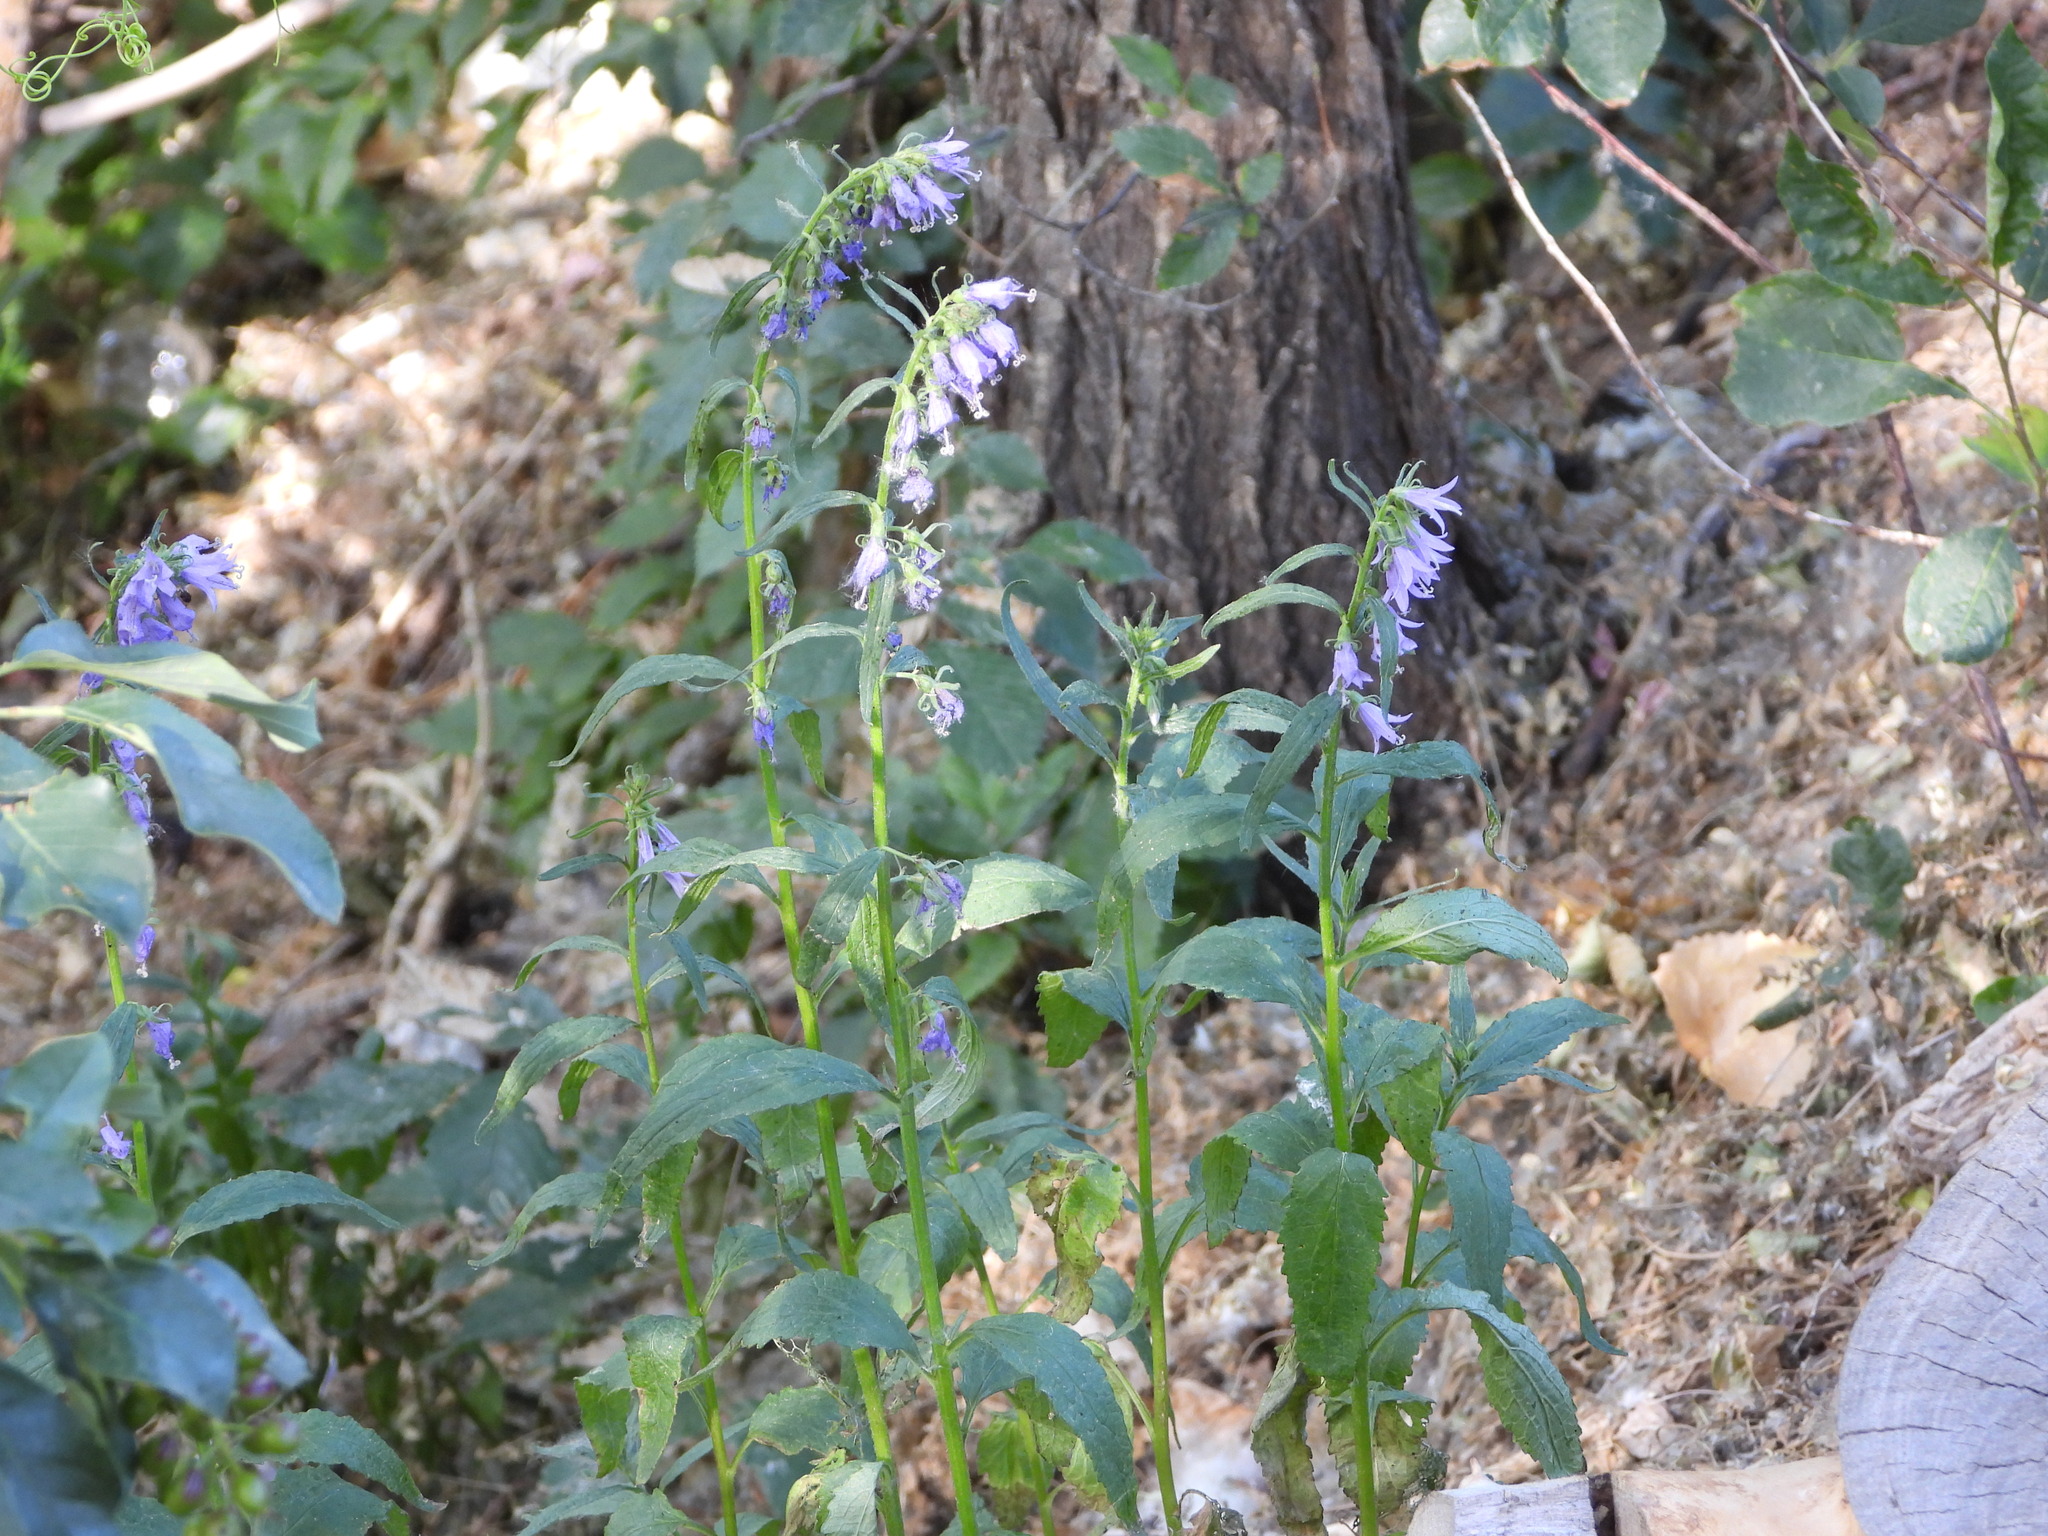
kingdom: Plantae
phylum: Tracheophyta
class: Magnoliopsida
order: Asterales
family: Campanulaceae
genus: Campanula
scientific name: Campanula rapunculoides
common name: Creeping bellflower
